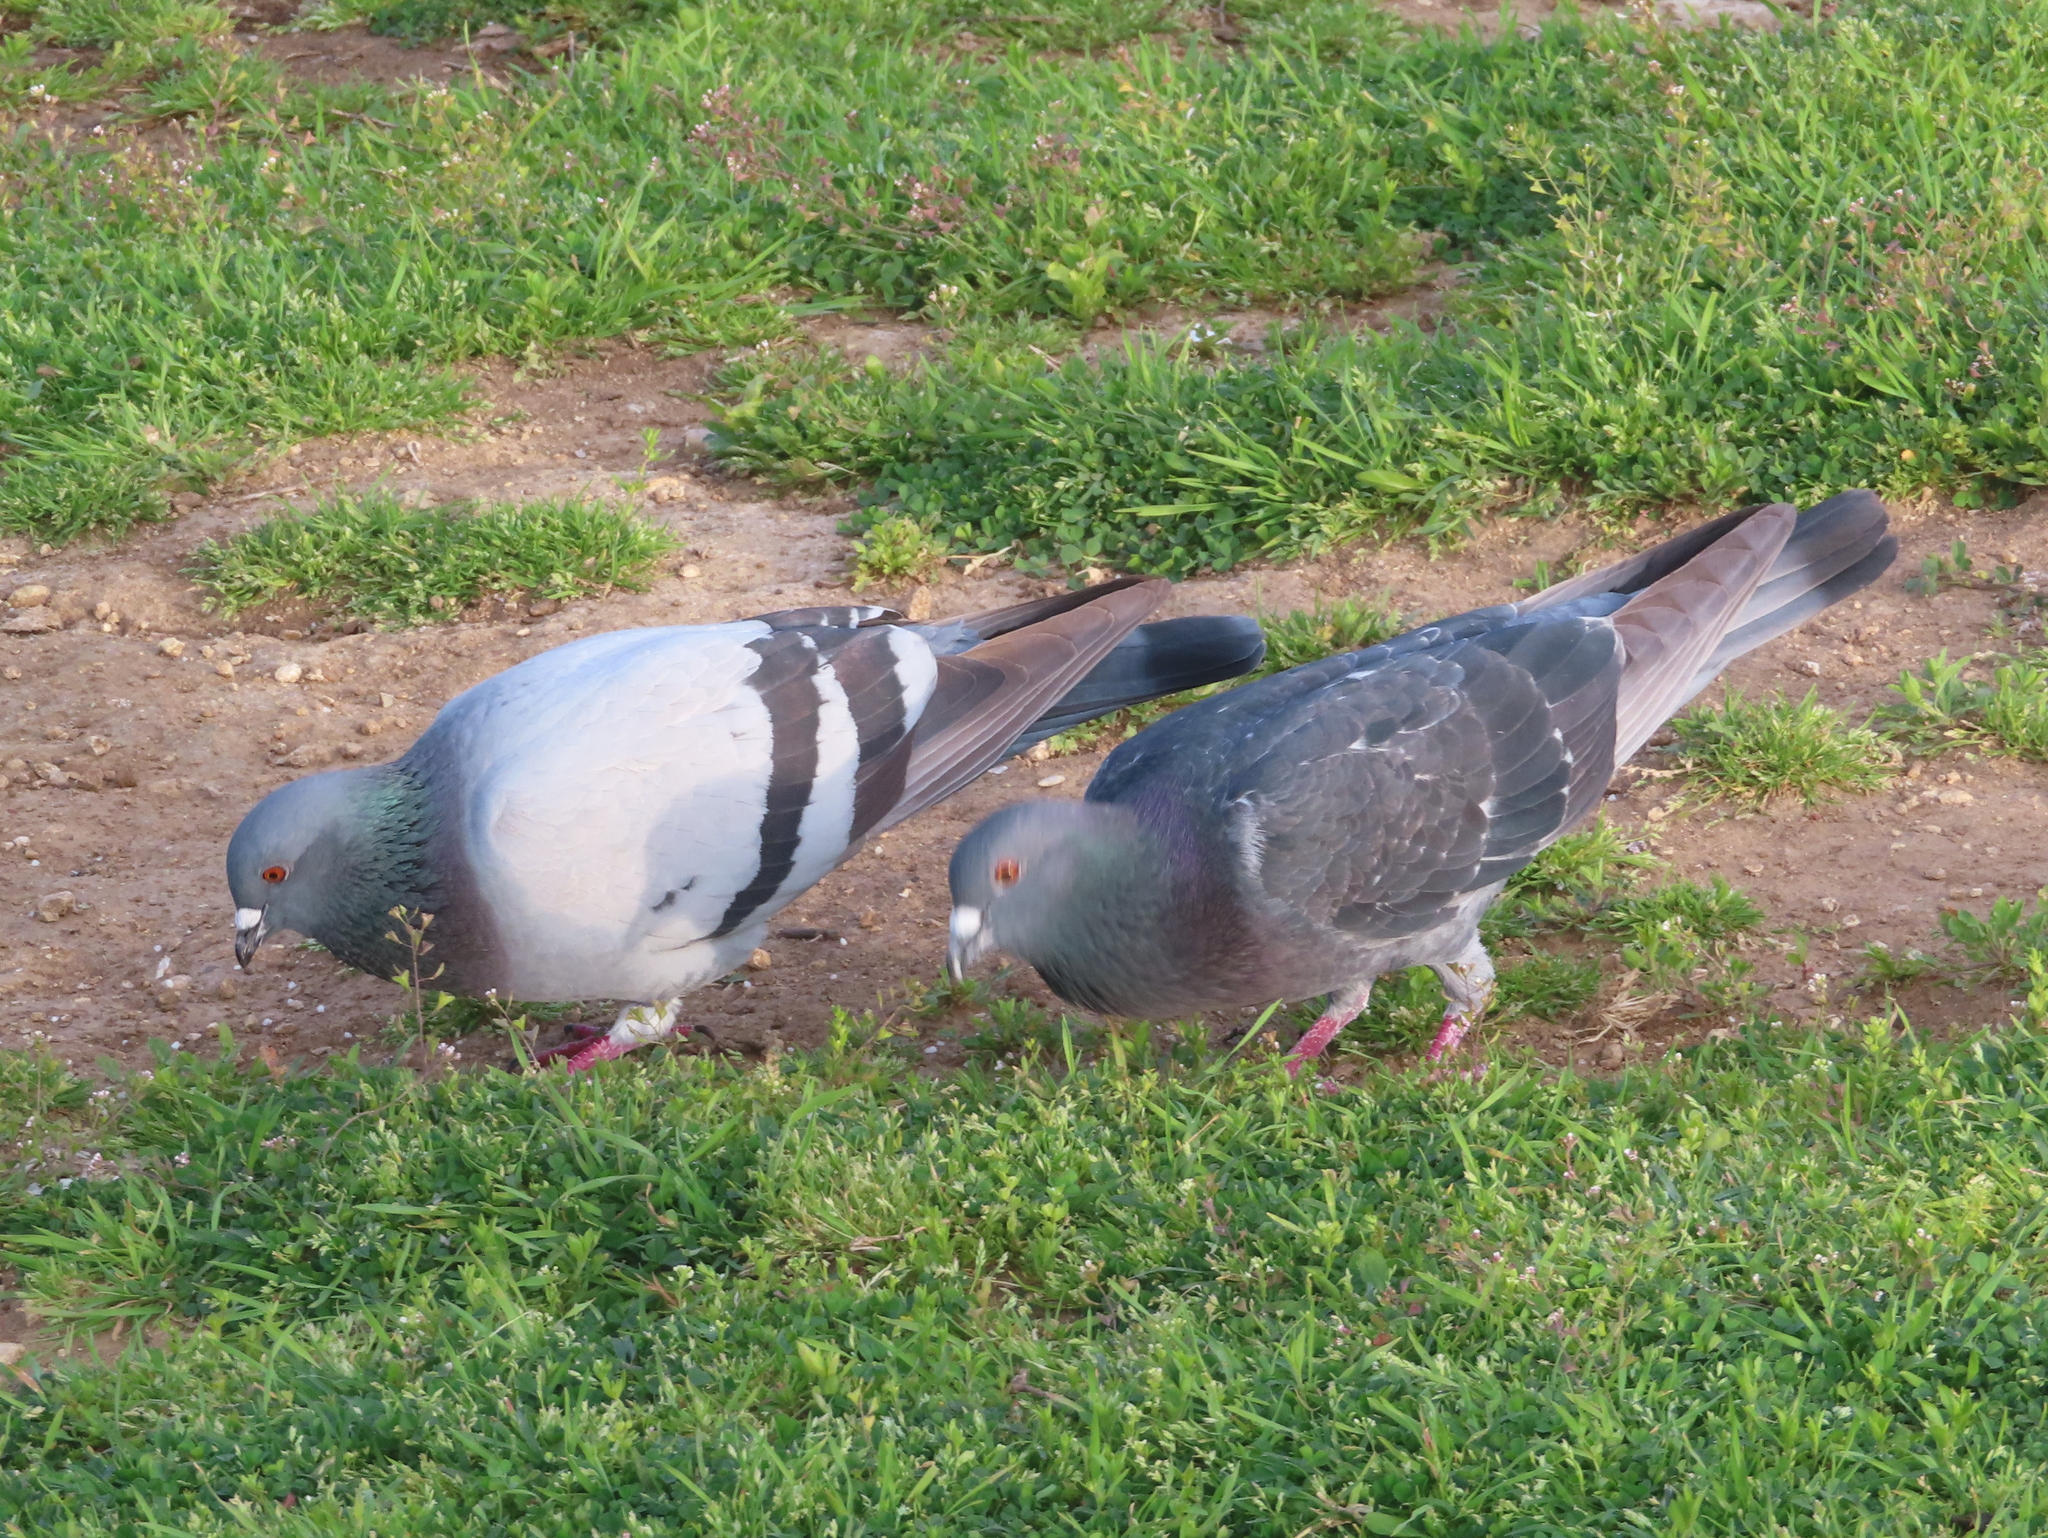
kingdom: Animalia
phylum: Chordata
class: Aves
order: Columbiformes
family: Columbidae
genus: Columba
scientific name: Columba livia
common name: Rock pigeon
